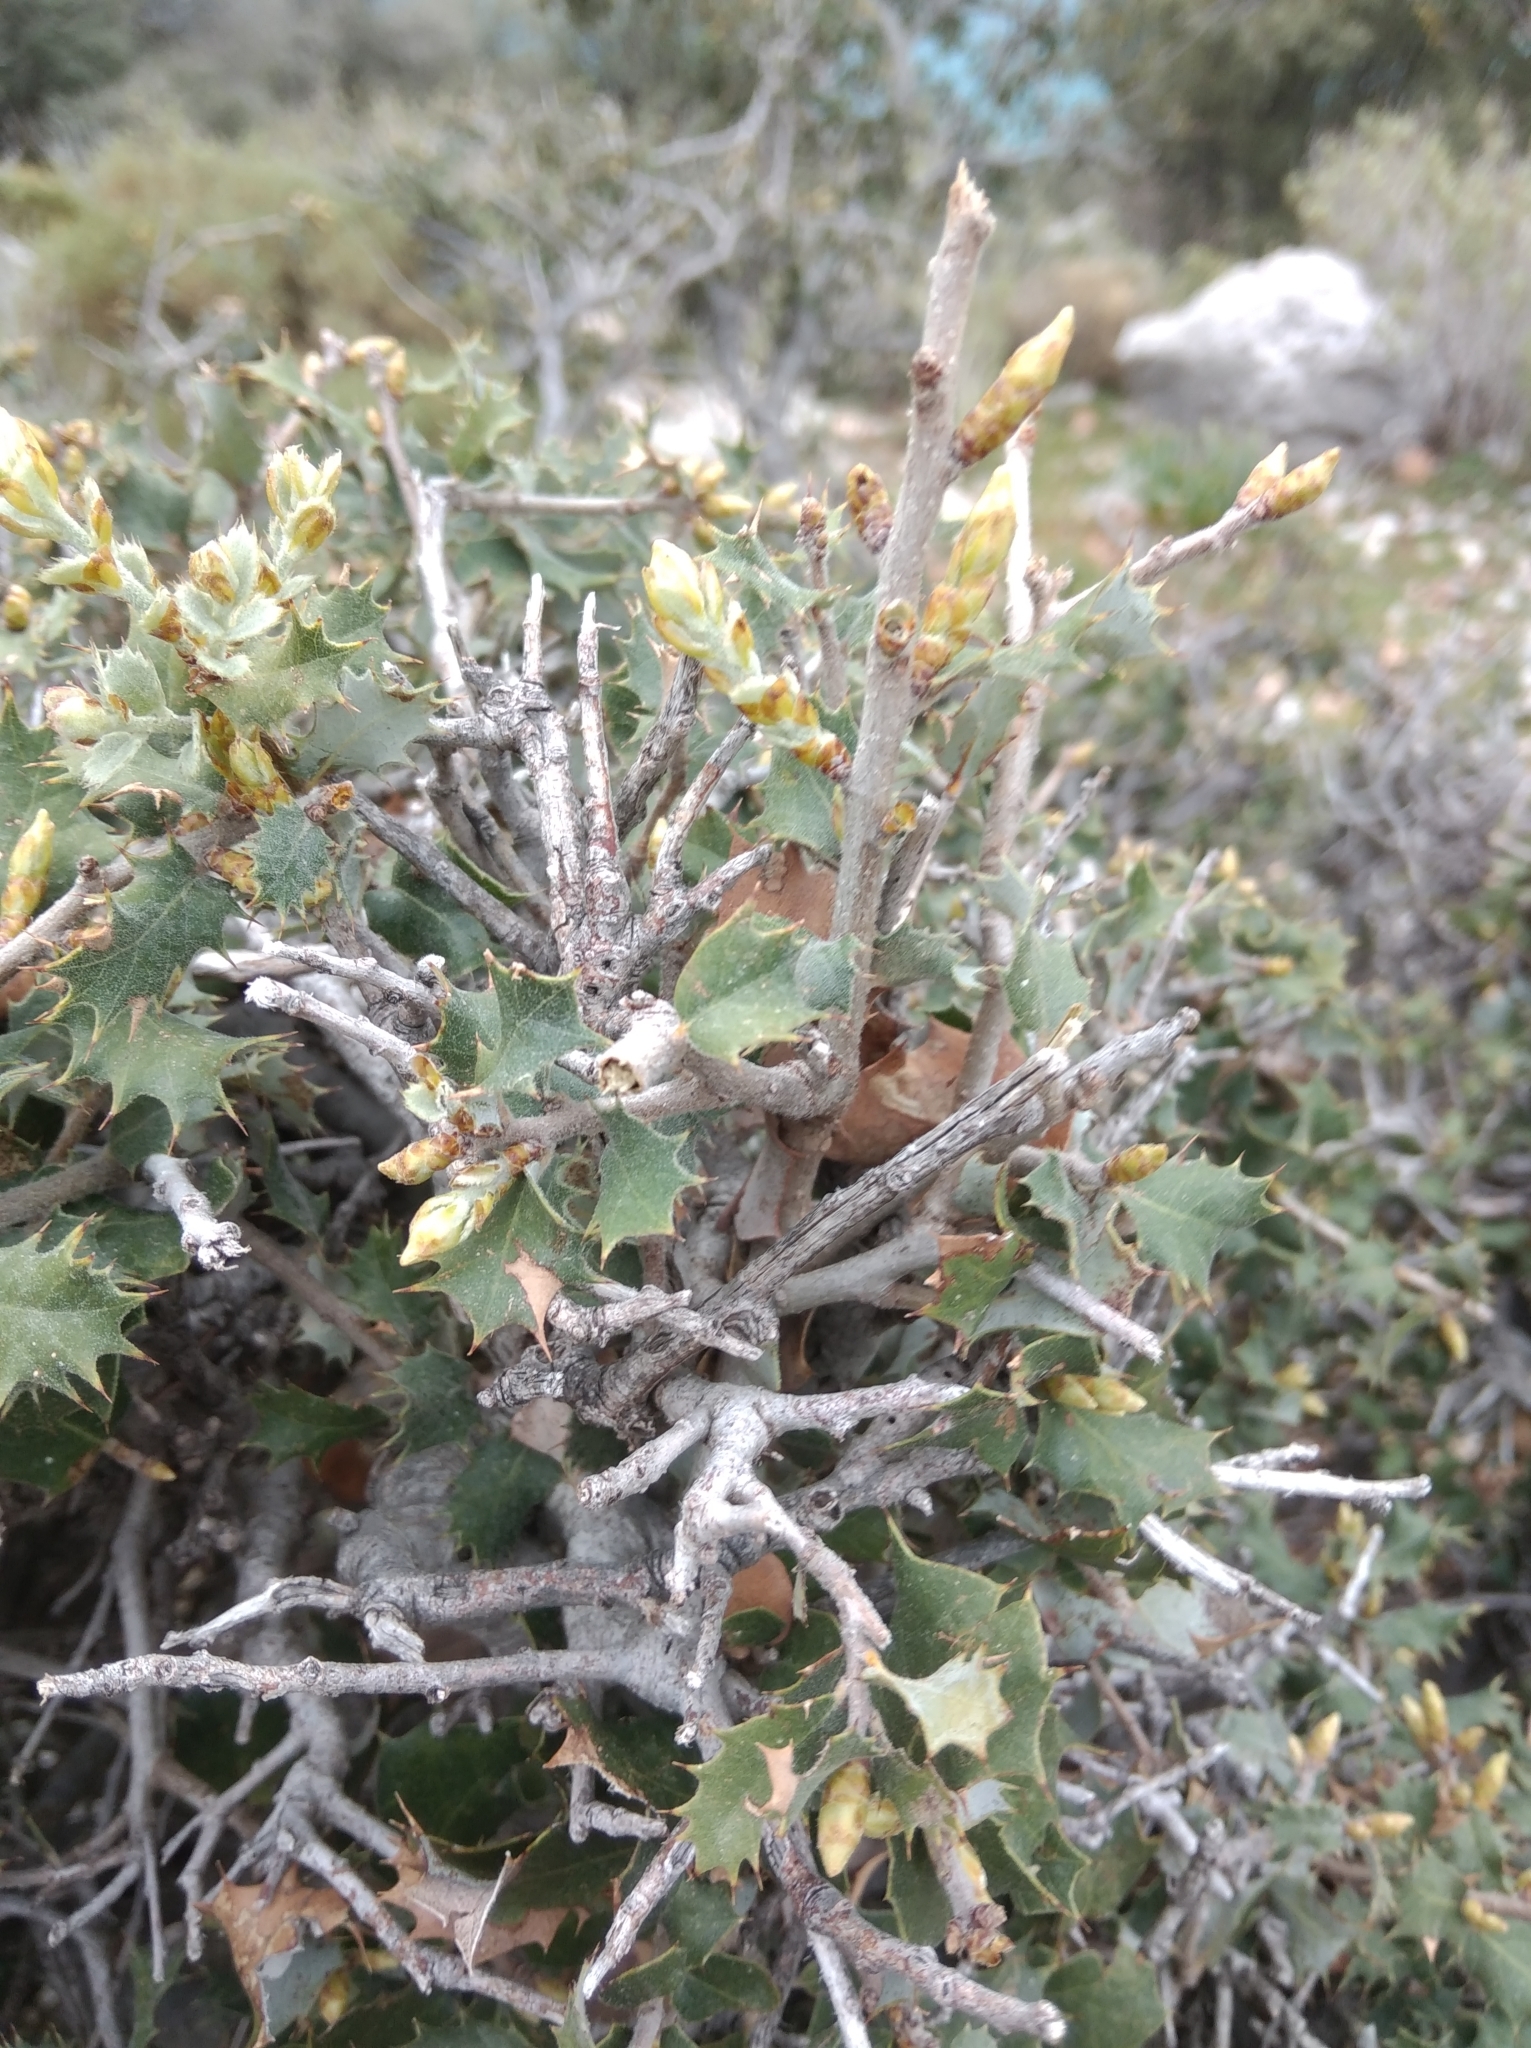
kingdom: Plantae
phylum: Tracheophyta
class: Magnoliopsida
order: Fagales
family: Fagaceae
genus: Quercus
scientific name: Quercus coccifera
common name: Kermes oak
